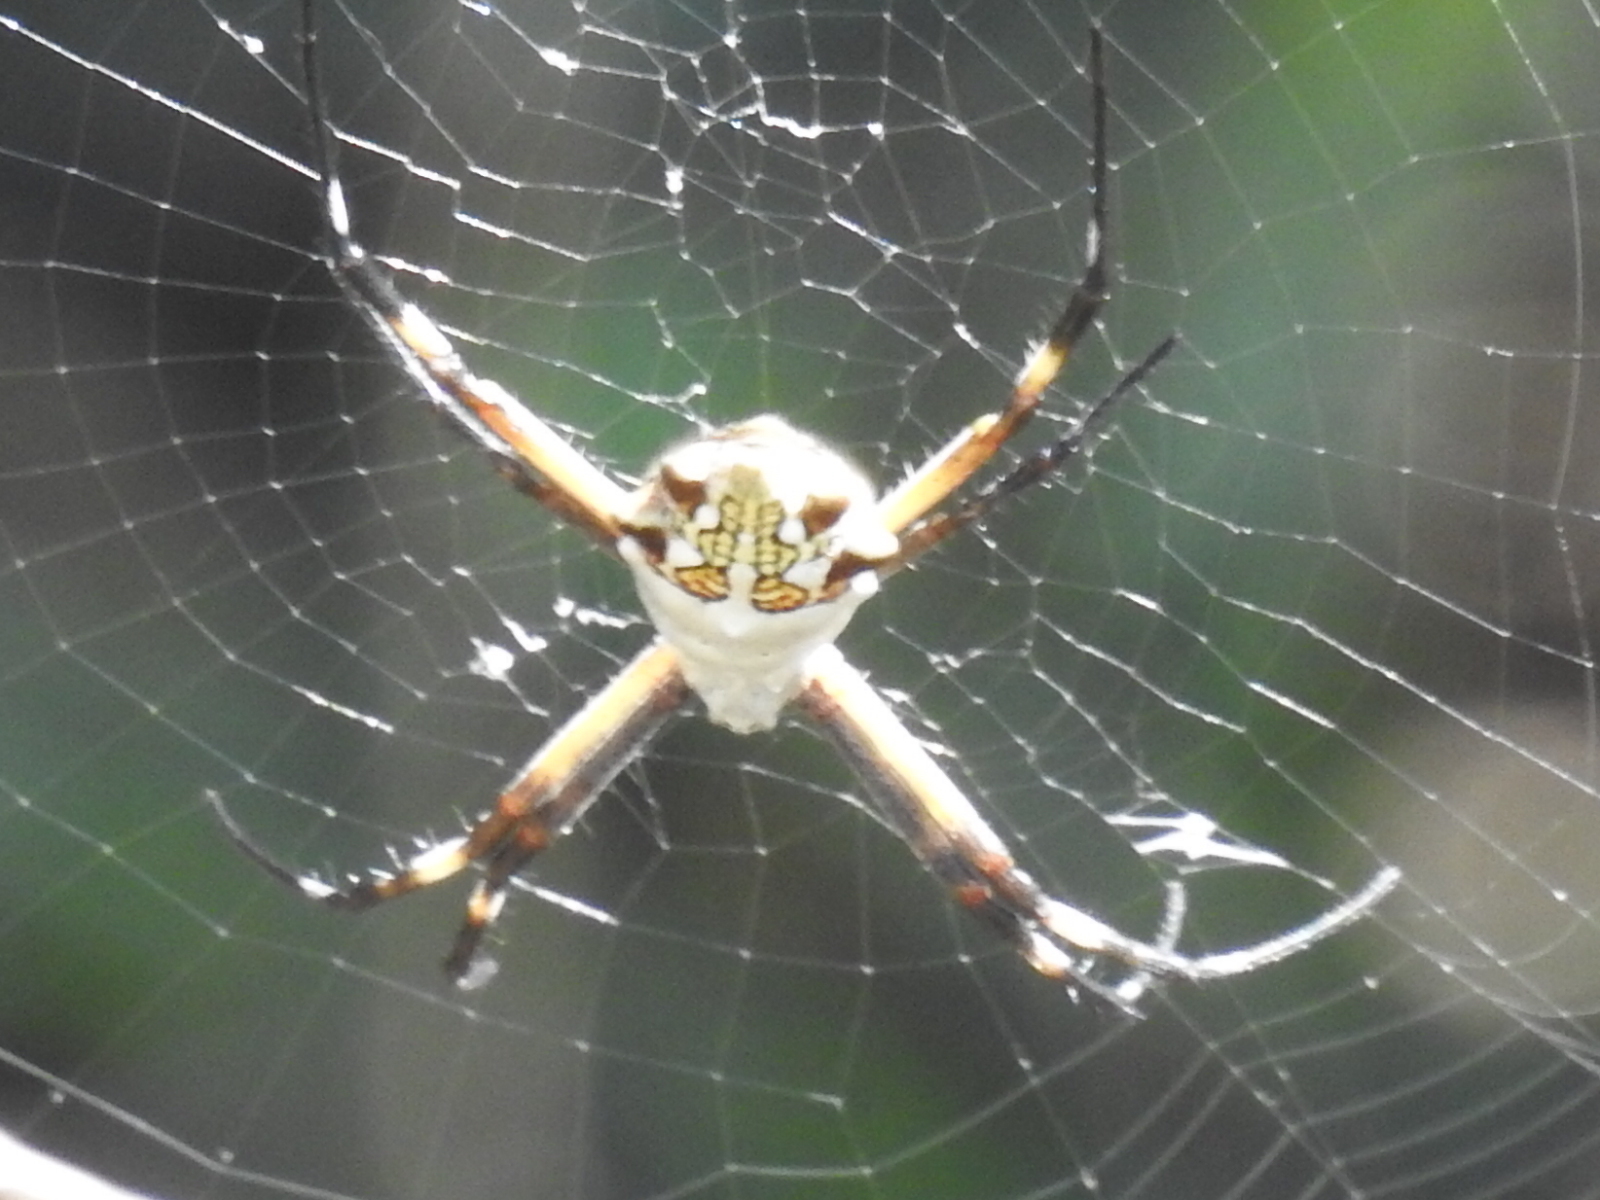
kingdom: Animalia
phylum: Arthropoda
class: Arachnida
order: Araneae
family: Araneidae
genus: Argiope
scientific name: Argiope argentata
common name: Orb weavers
